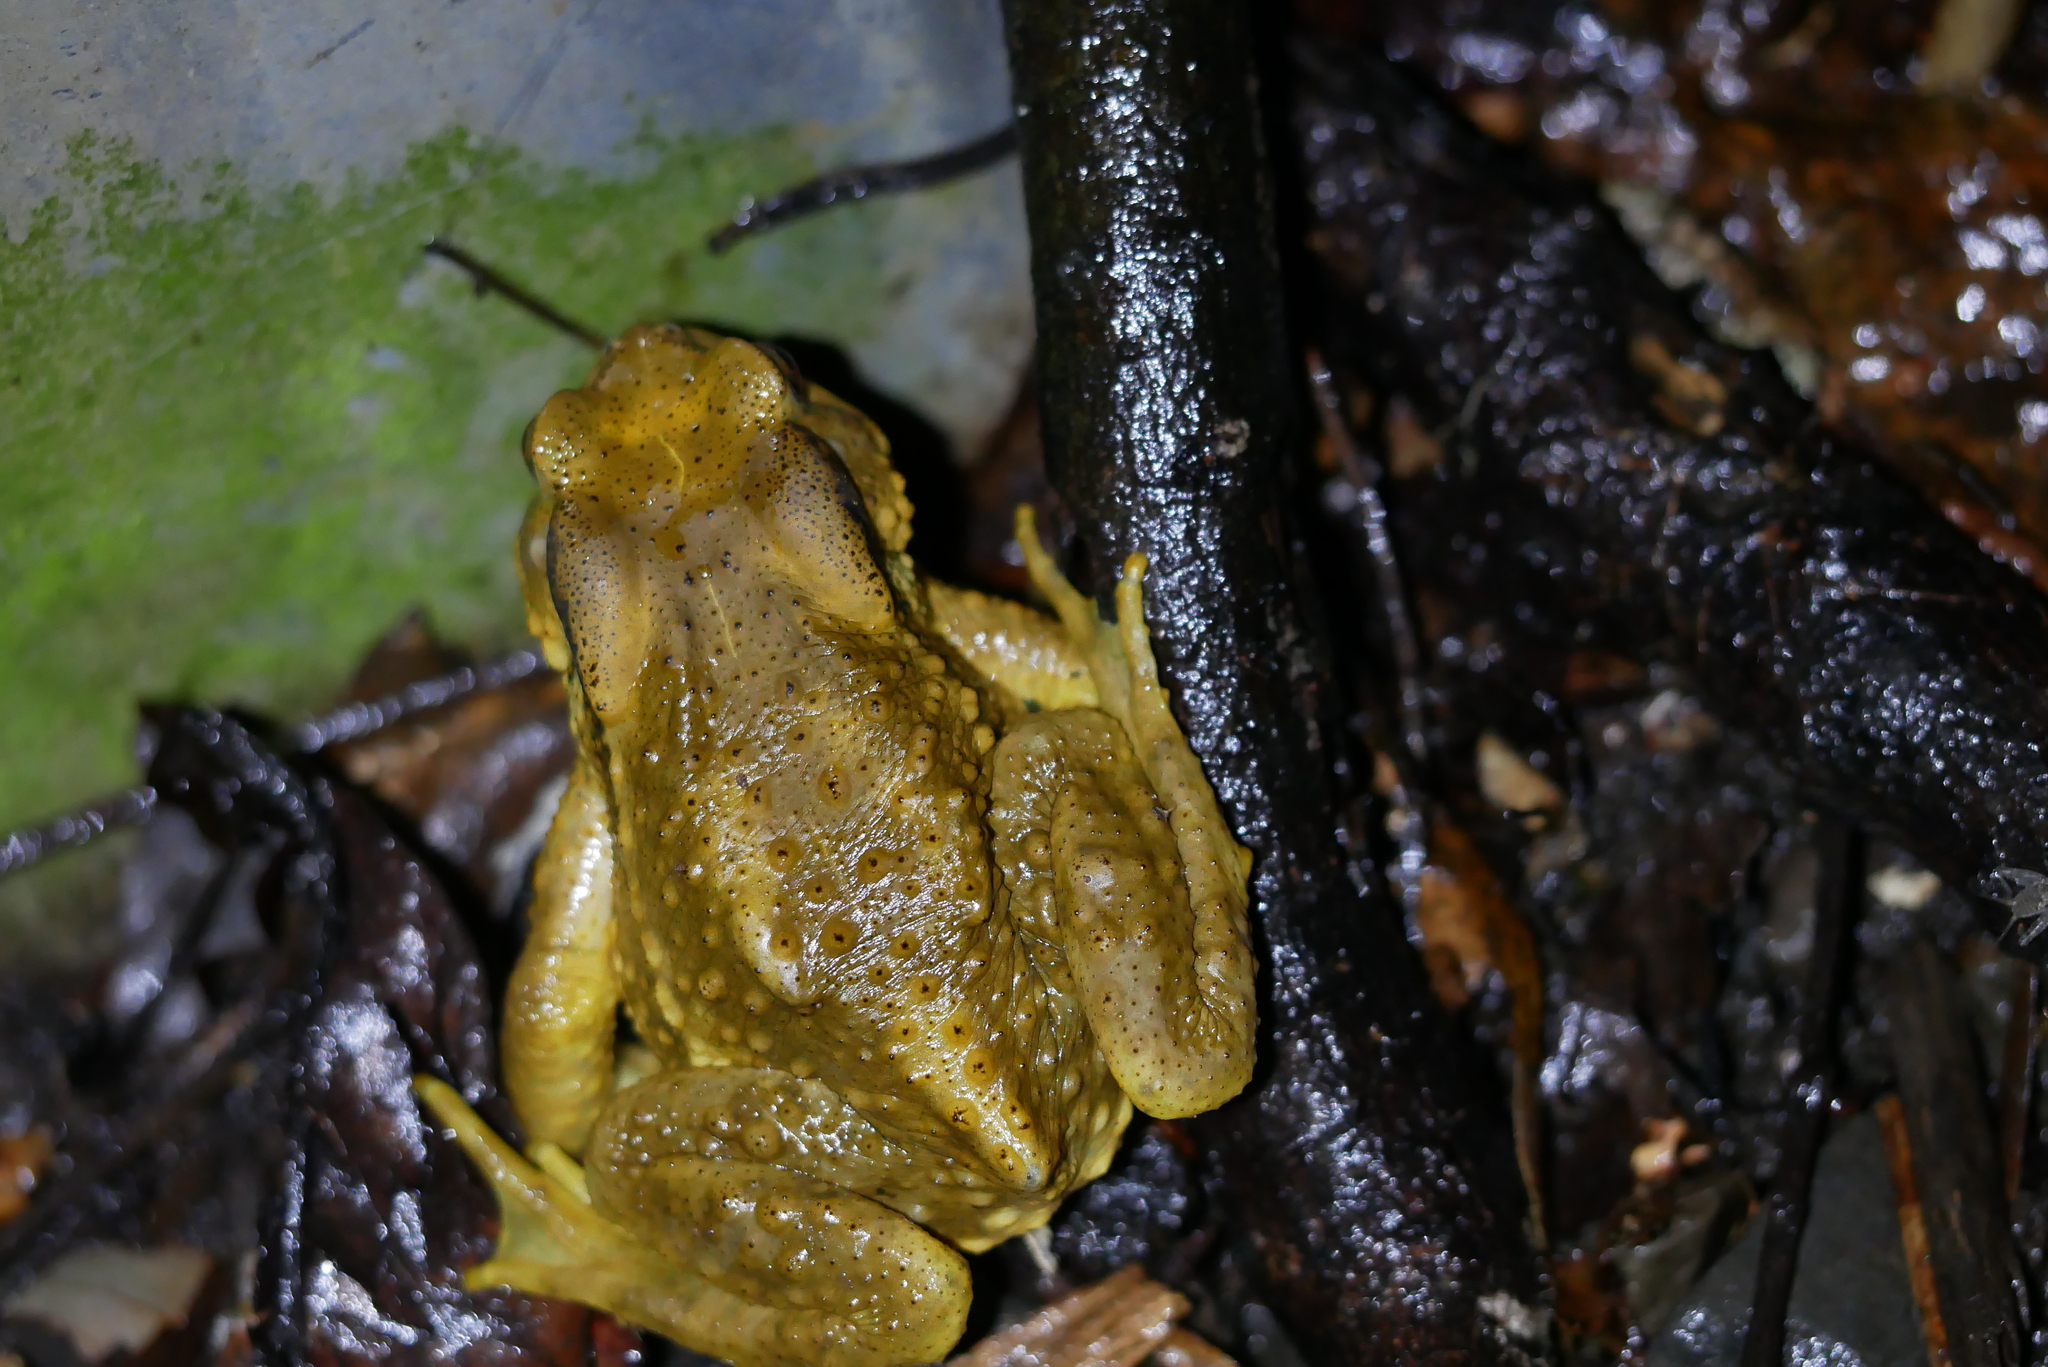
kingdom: Animalia
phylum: Chordata
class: Amphibia
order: Anura
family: Bufonidae
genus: Bufo
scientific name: Bufo bankorensis
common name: Bankor toad
